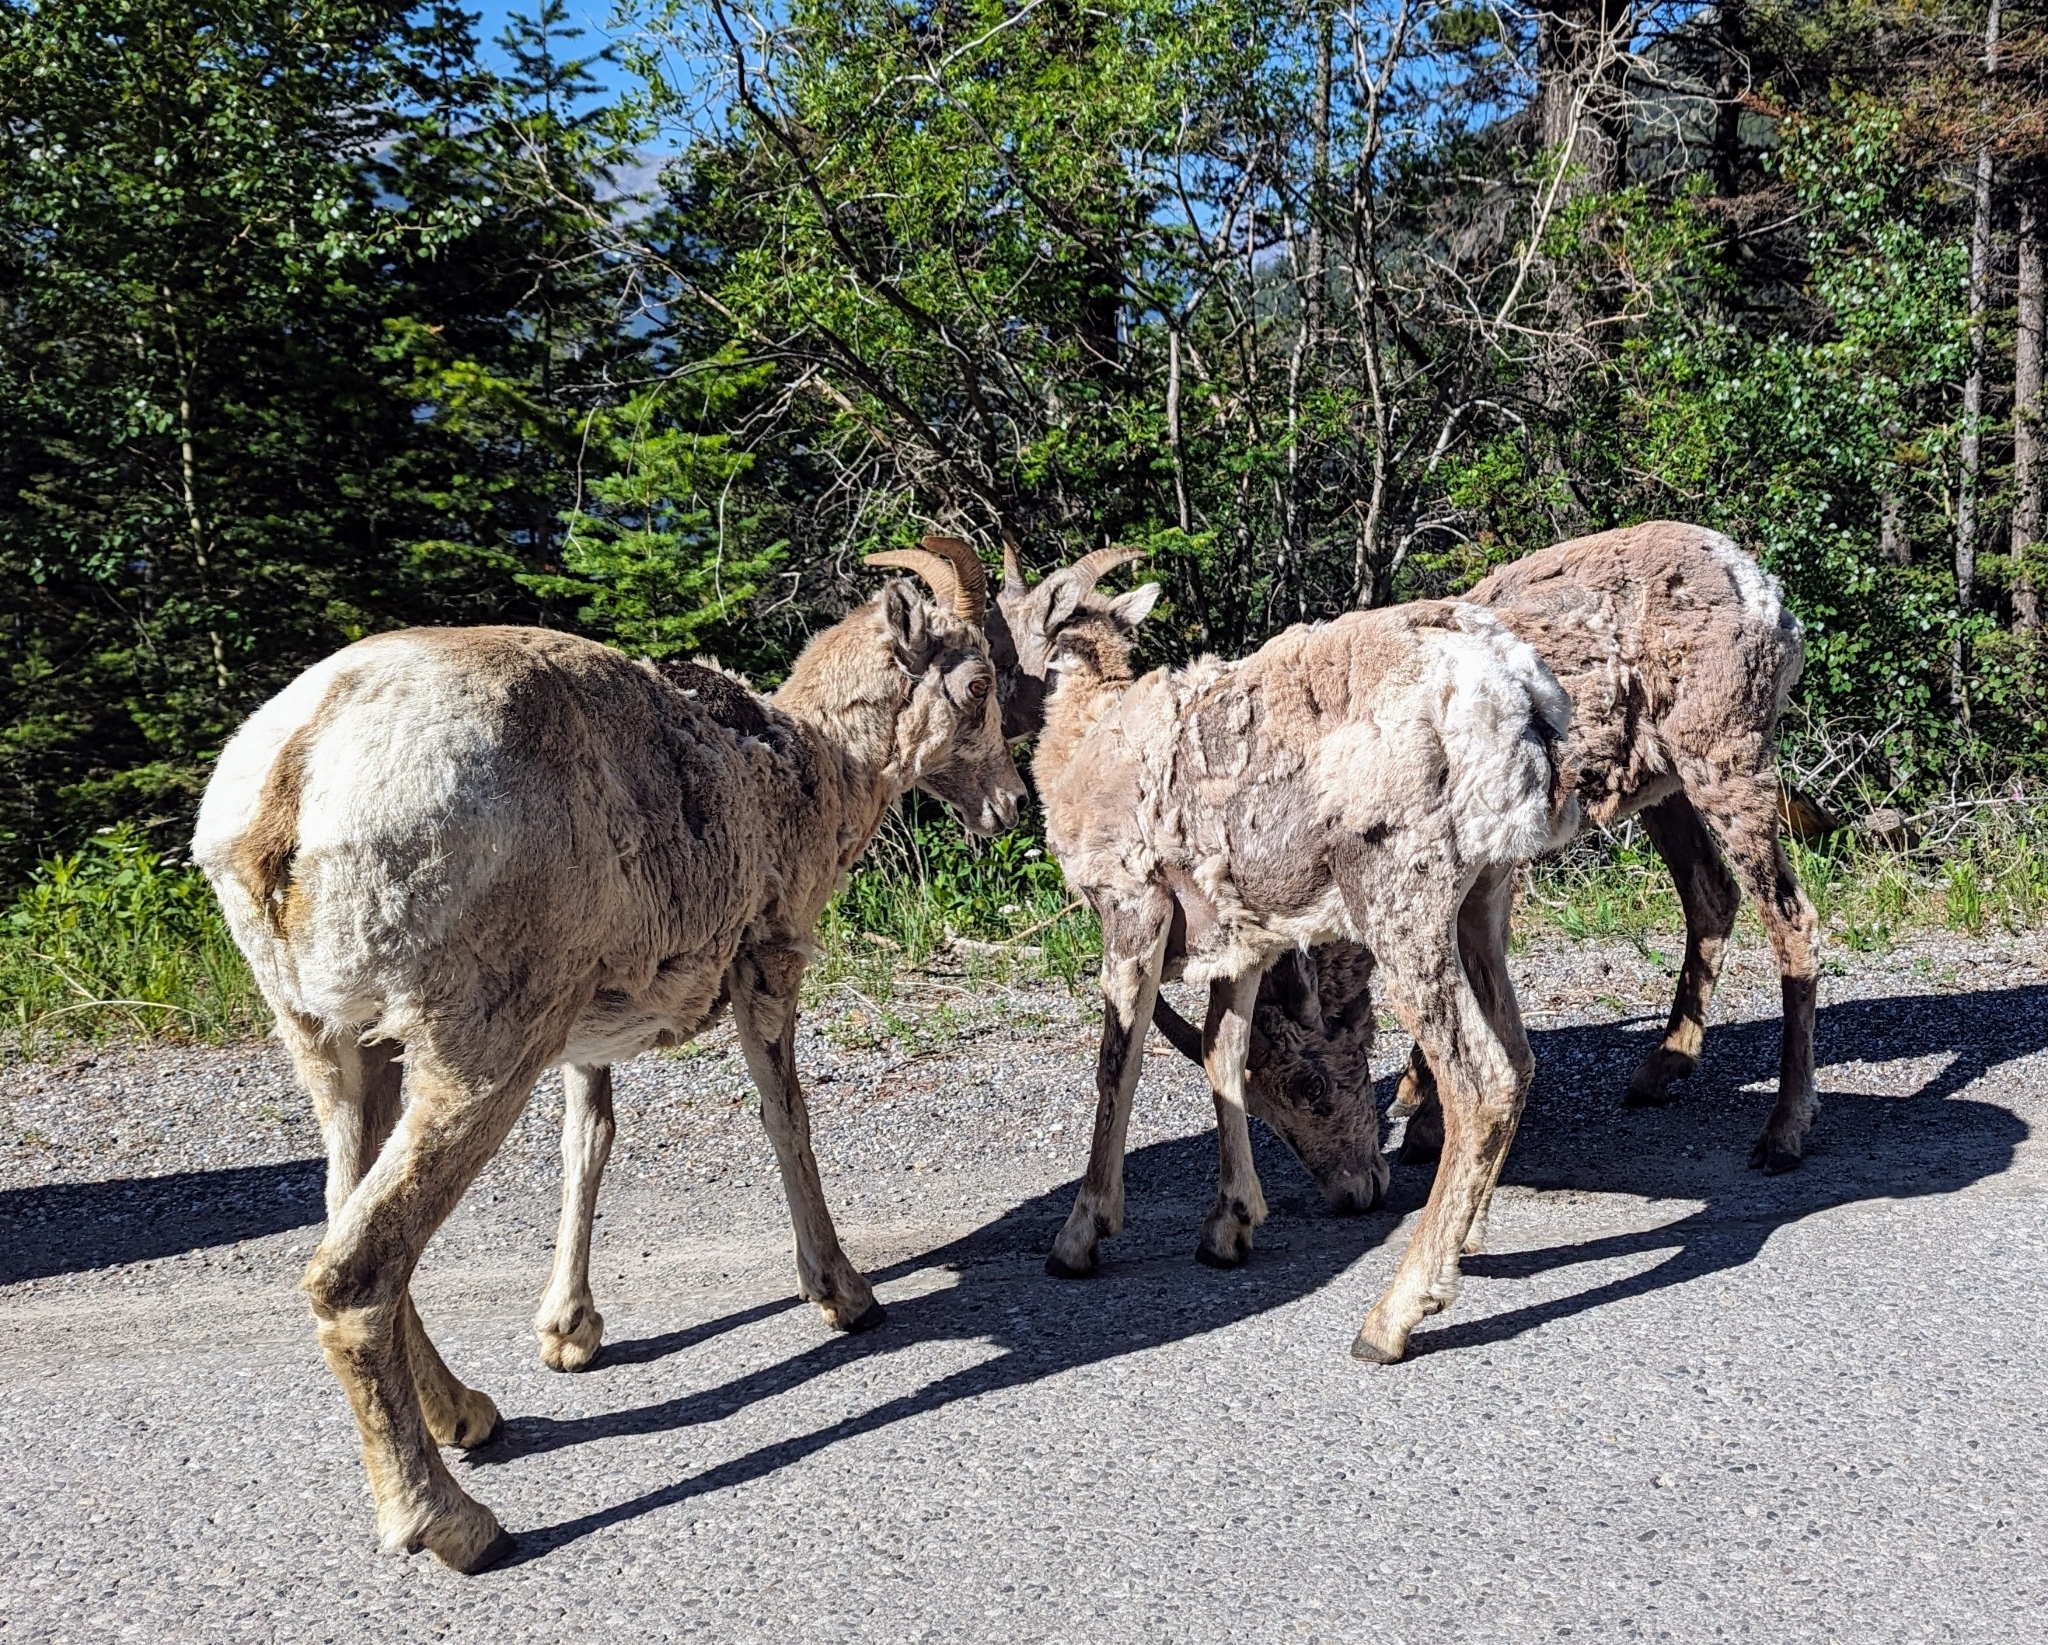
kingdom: Animalia
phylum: Chordata
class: Mammalia
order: Artiodactyla
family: Bovidae
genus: Ovis
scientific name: Ovis canadensis
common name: Bighorn sheep
